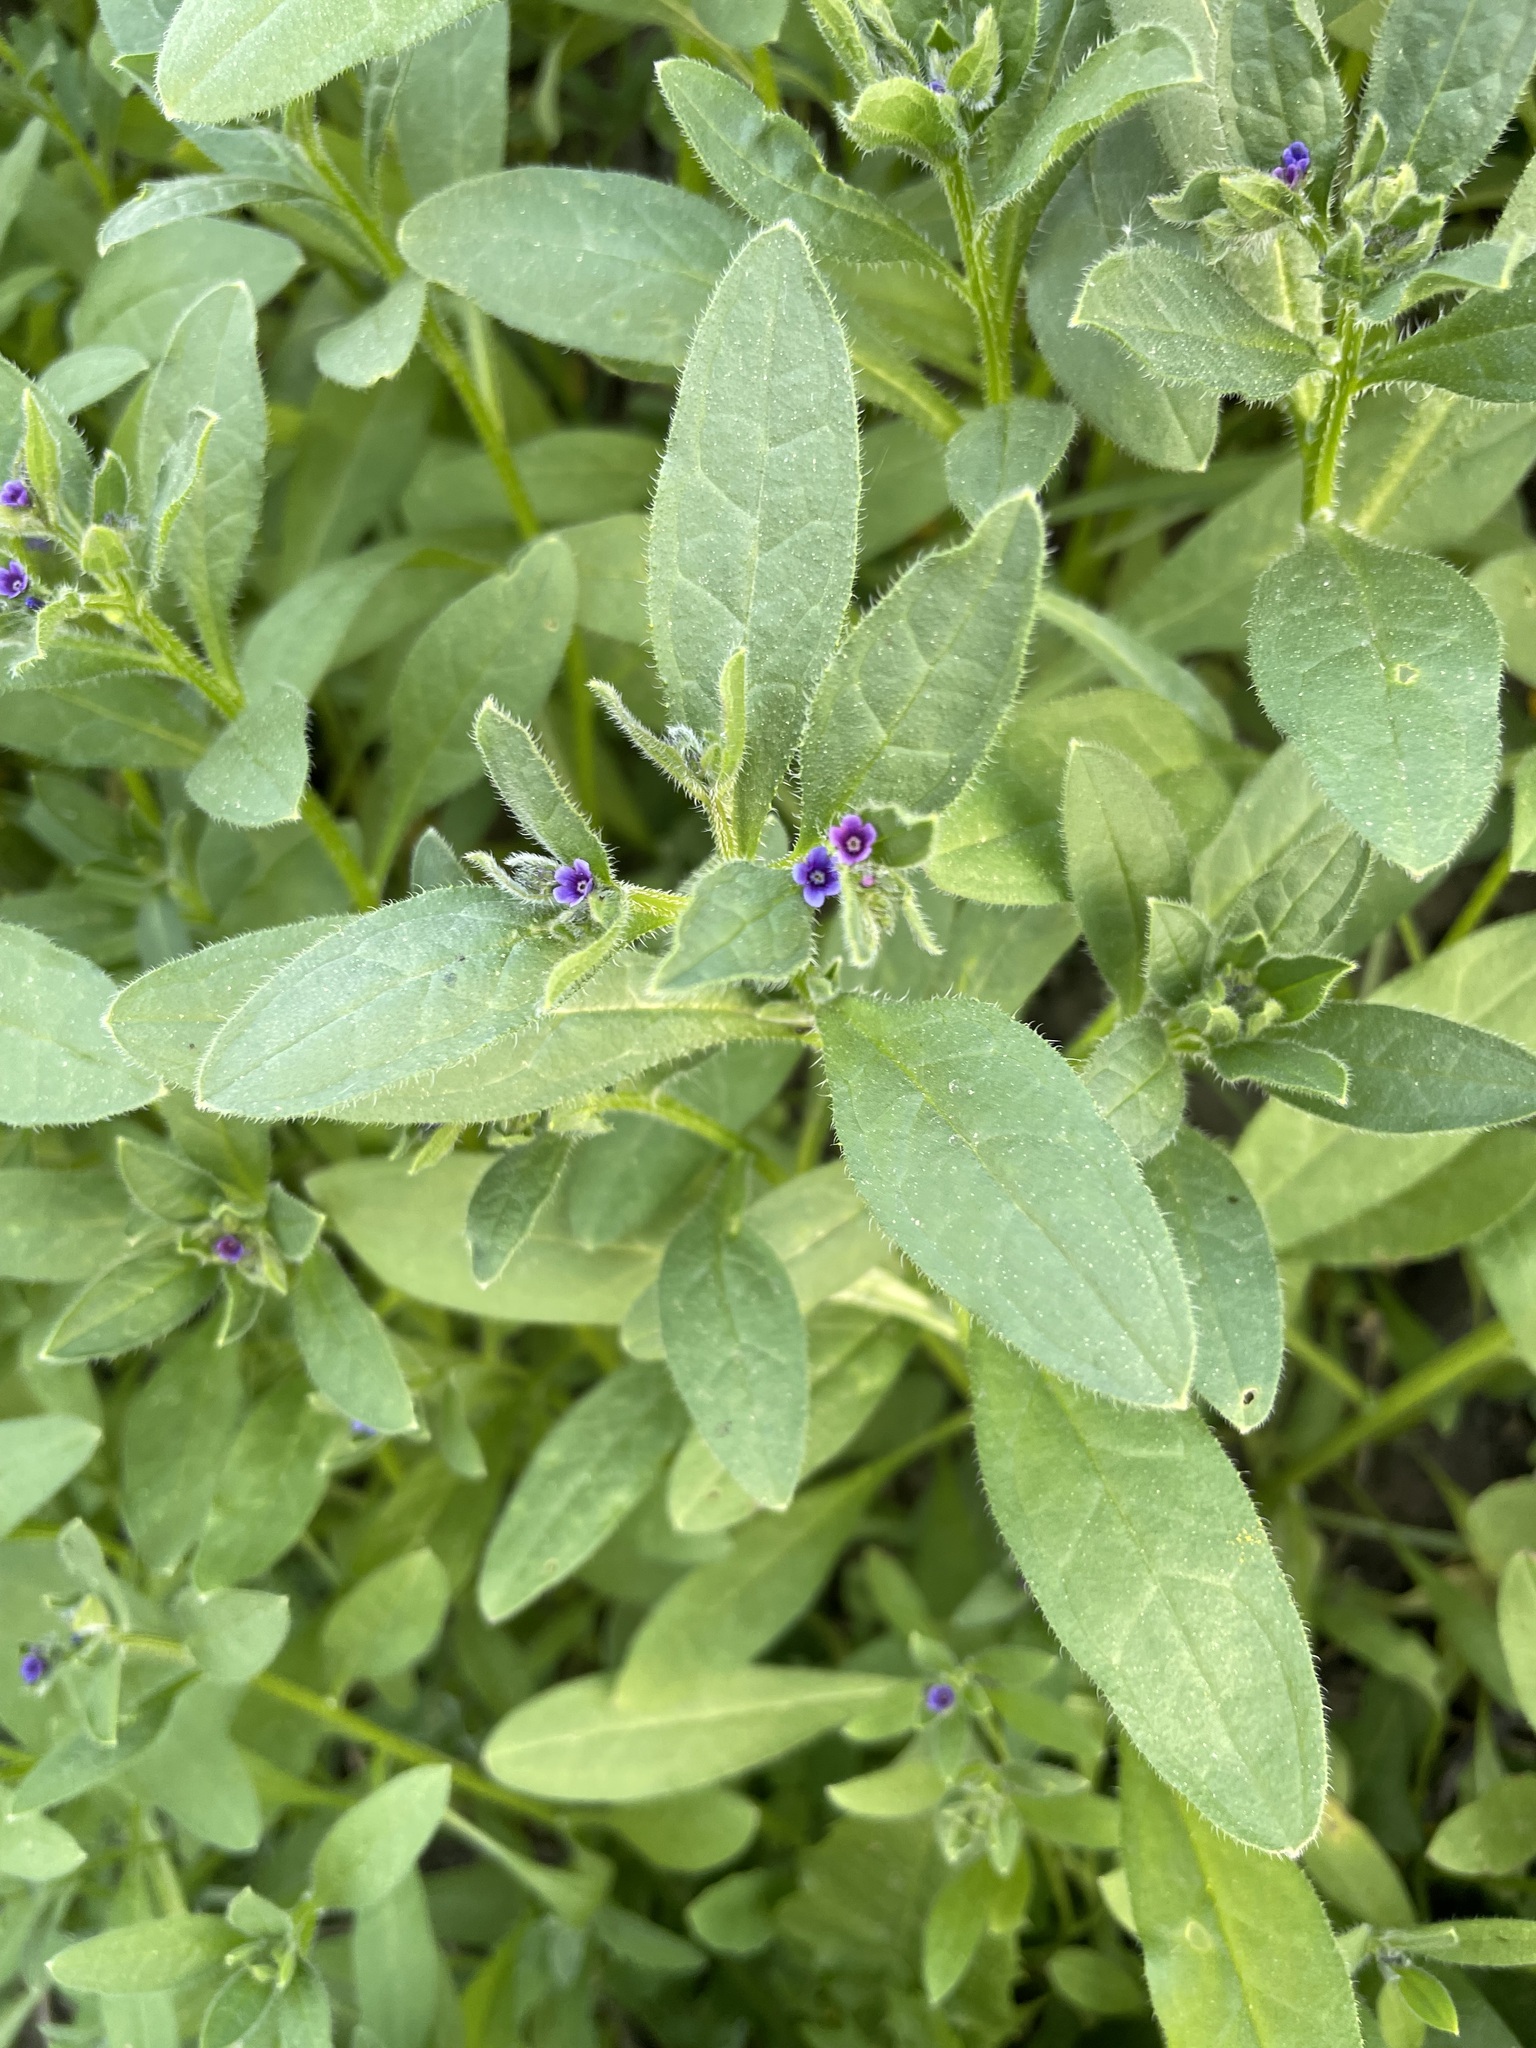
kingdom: Plantae
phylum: Tracheophyta
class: Magnoliopsida
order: Boraginales
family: Boraginaceae
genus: Asperugo
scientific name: Asperugo procumbens
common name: Madwort
